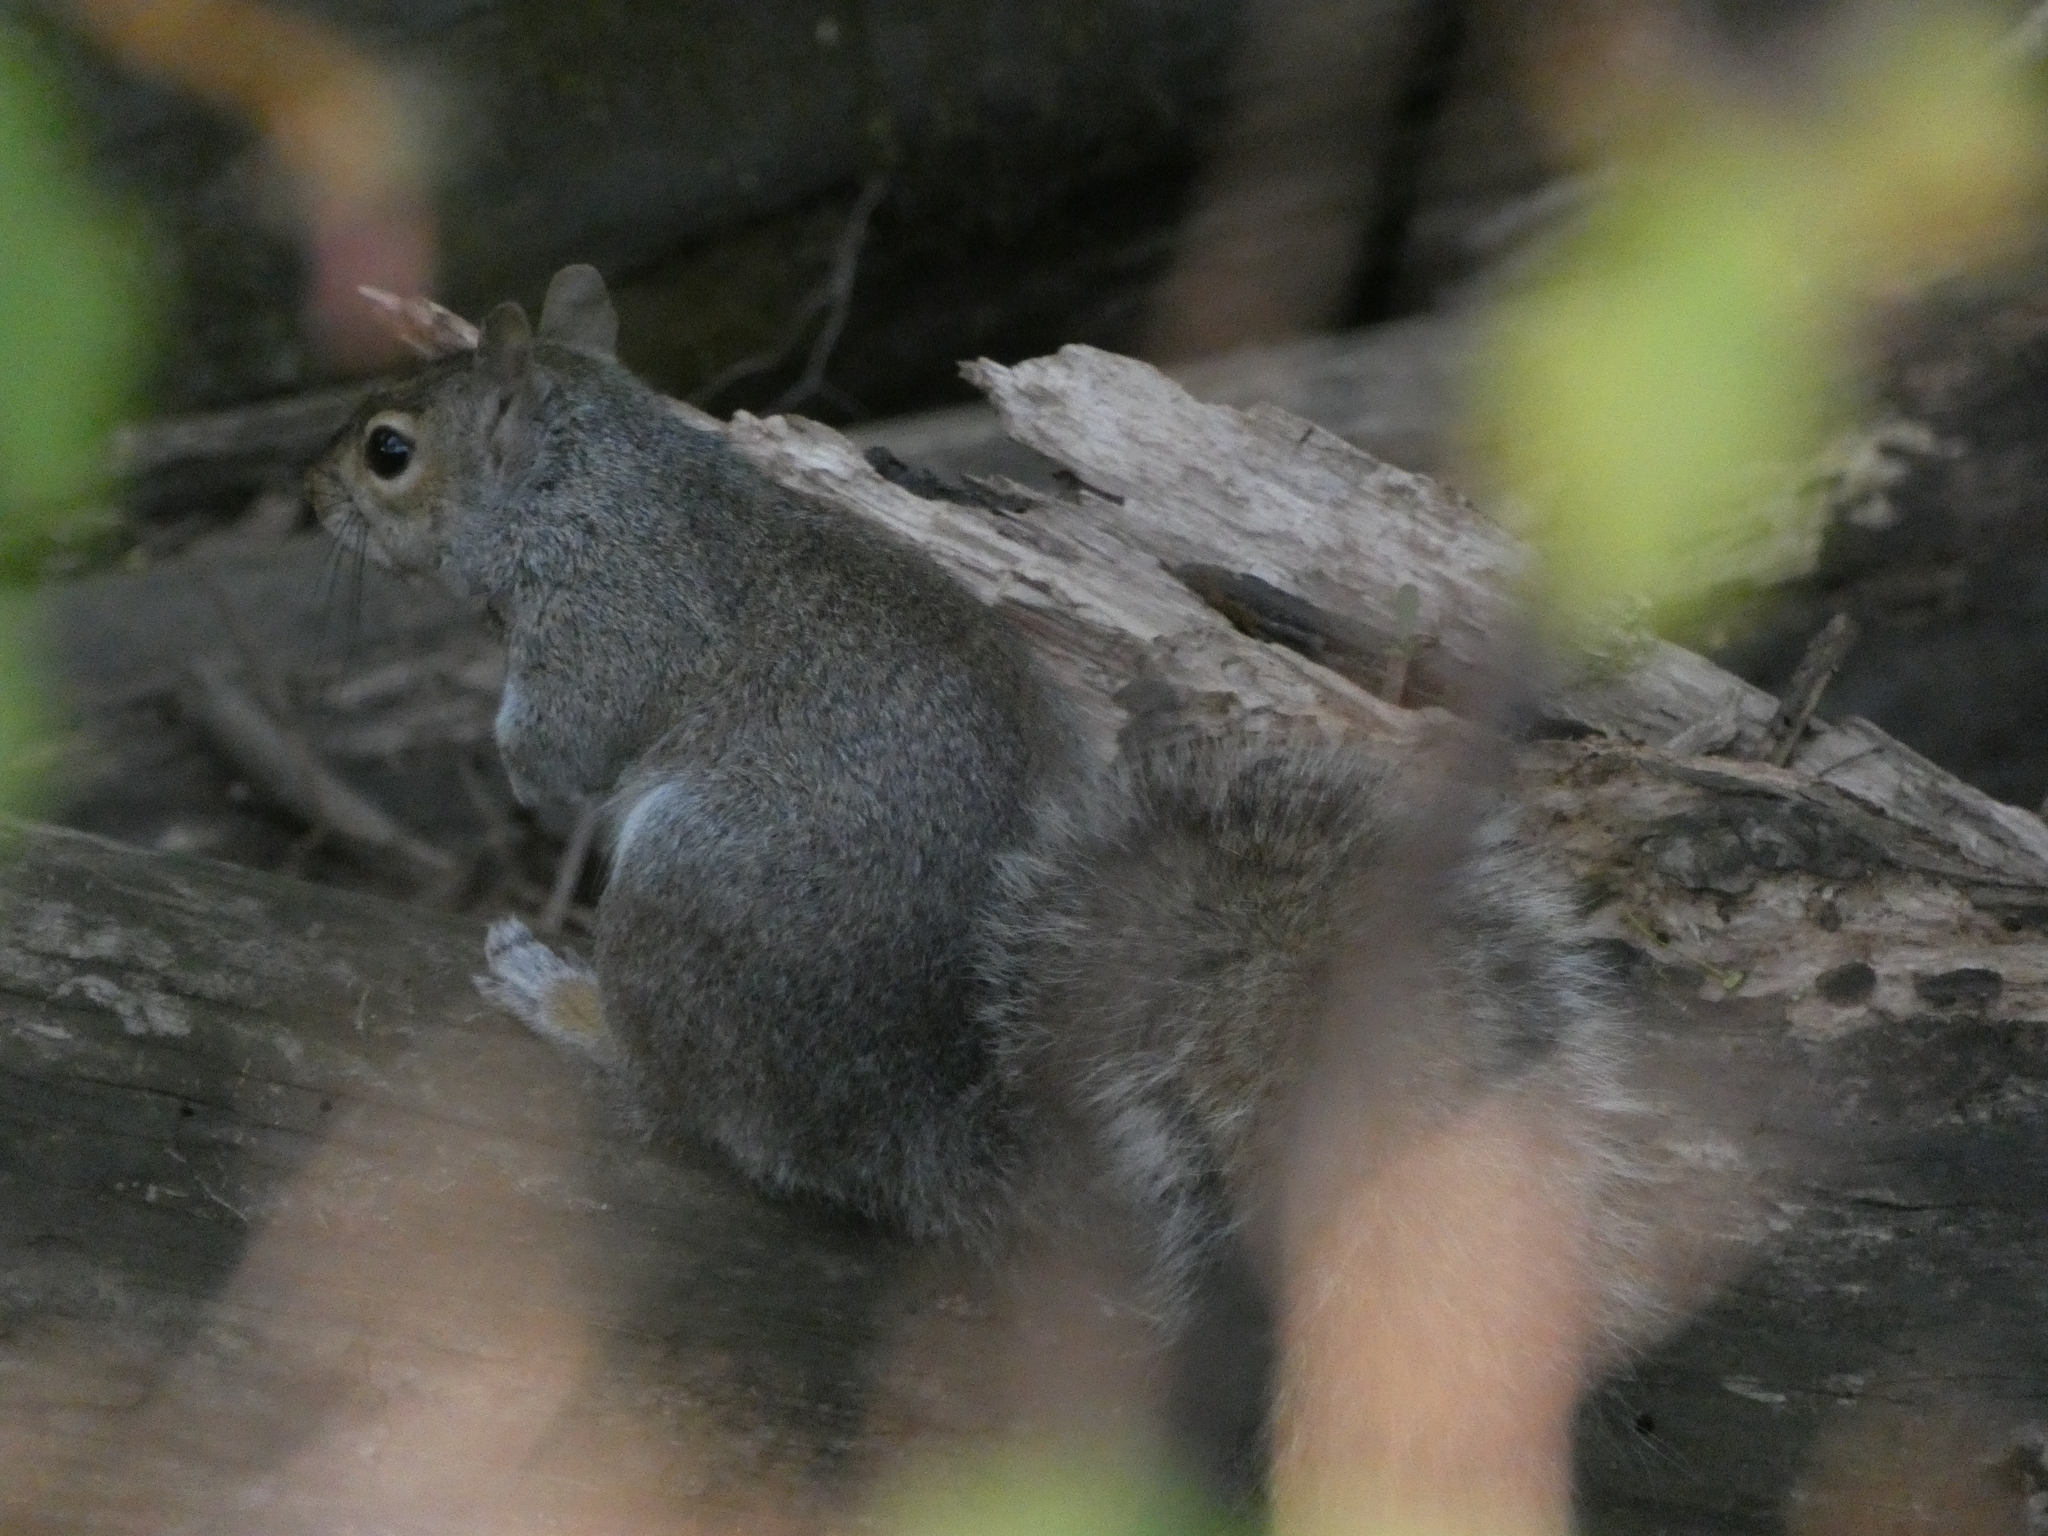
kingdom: Animalia
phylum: Chordata
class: Mammalia
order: Rodentia
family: Sciuridae
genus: Sciurus
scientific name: Sciurus carolinensis
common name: Eastern gray squirrel
